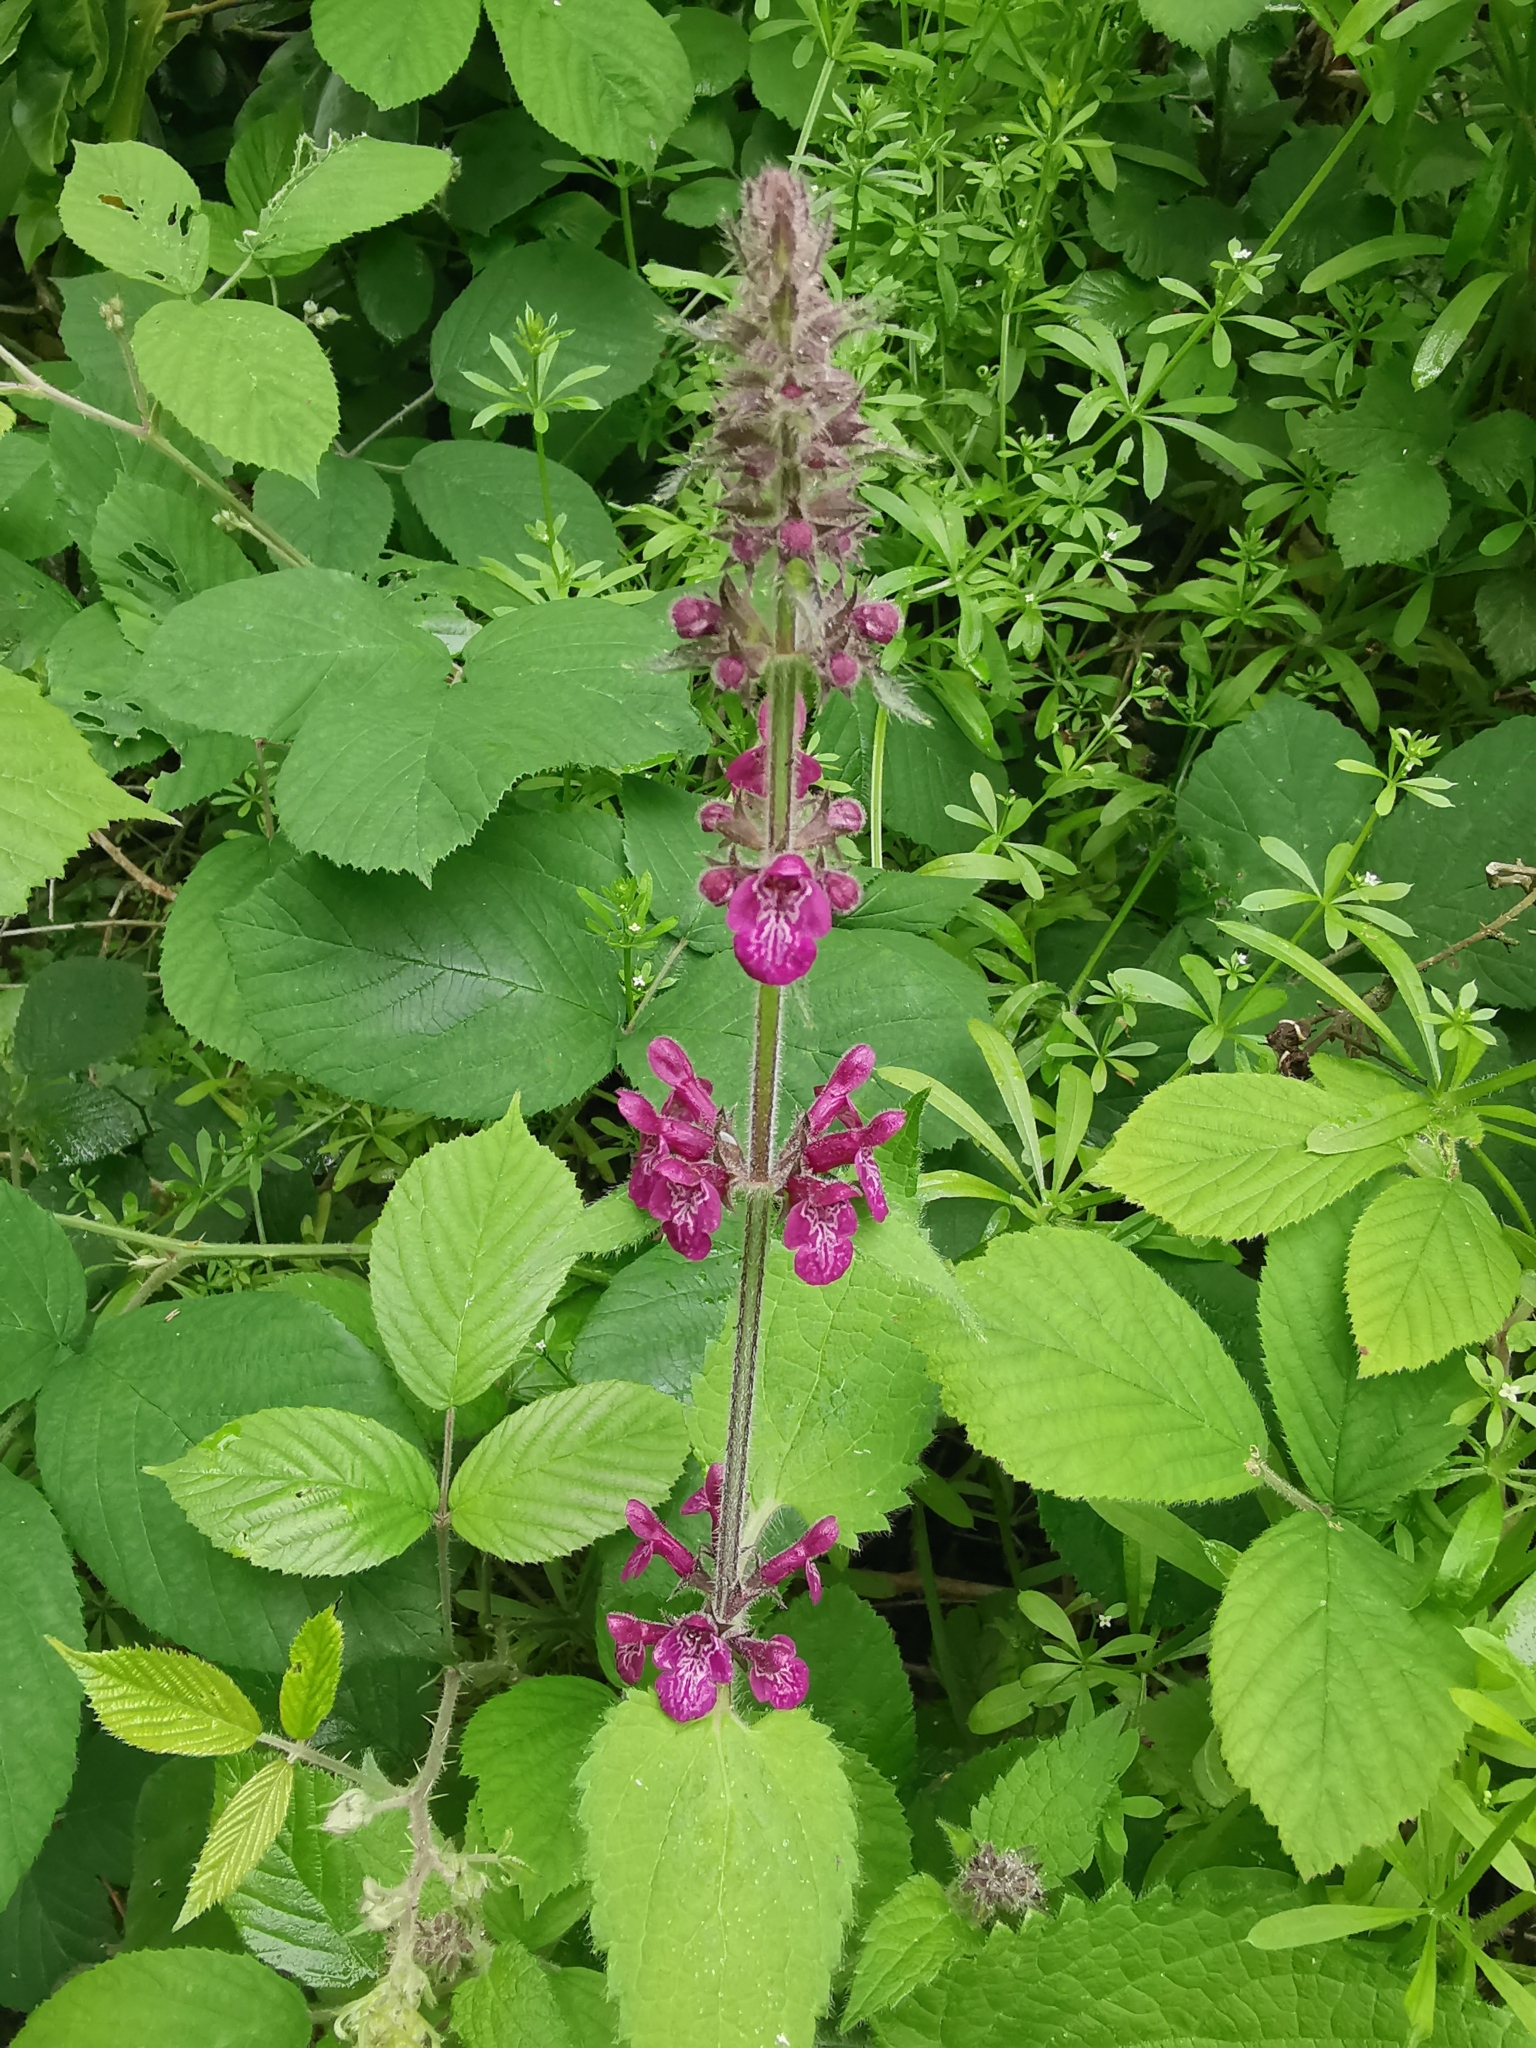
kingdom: Plantae
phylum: Tracheophyta
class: Magnoliopsida
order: Lamiales
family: Lamiaceae
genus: Stachys
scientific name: Stachys sylvatica
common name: Hedge woundwort
